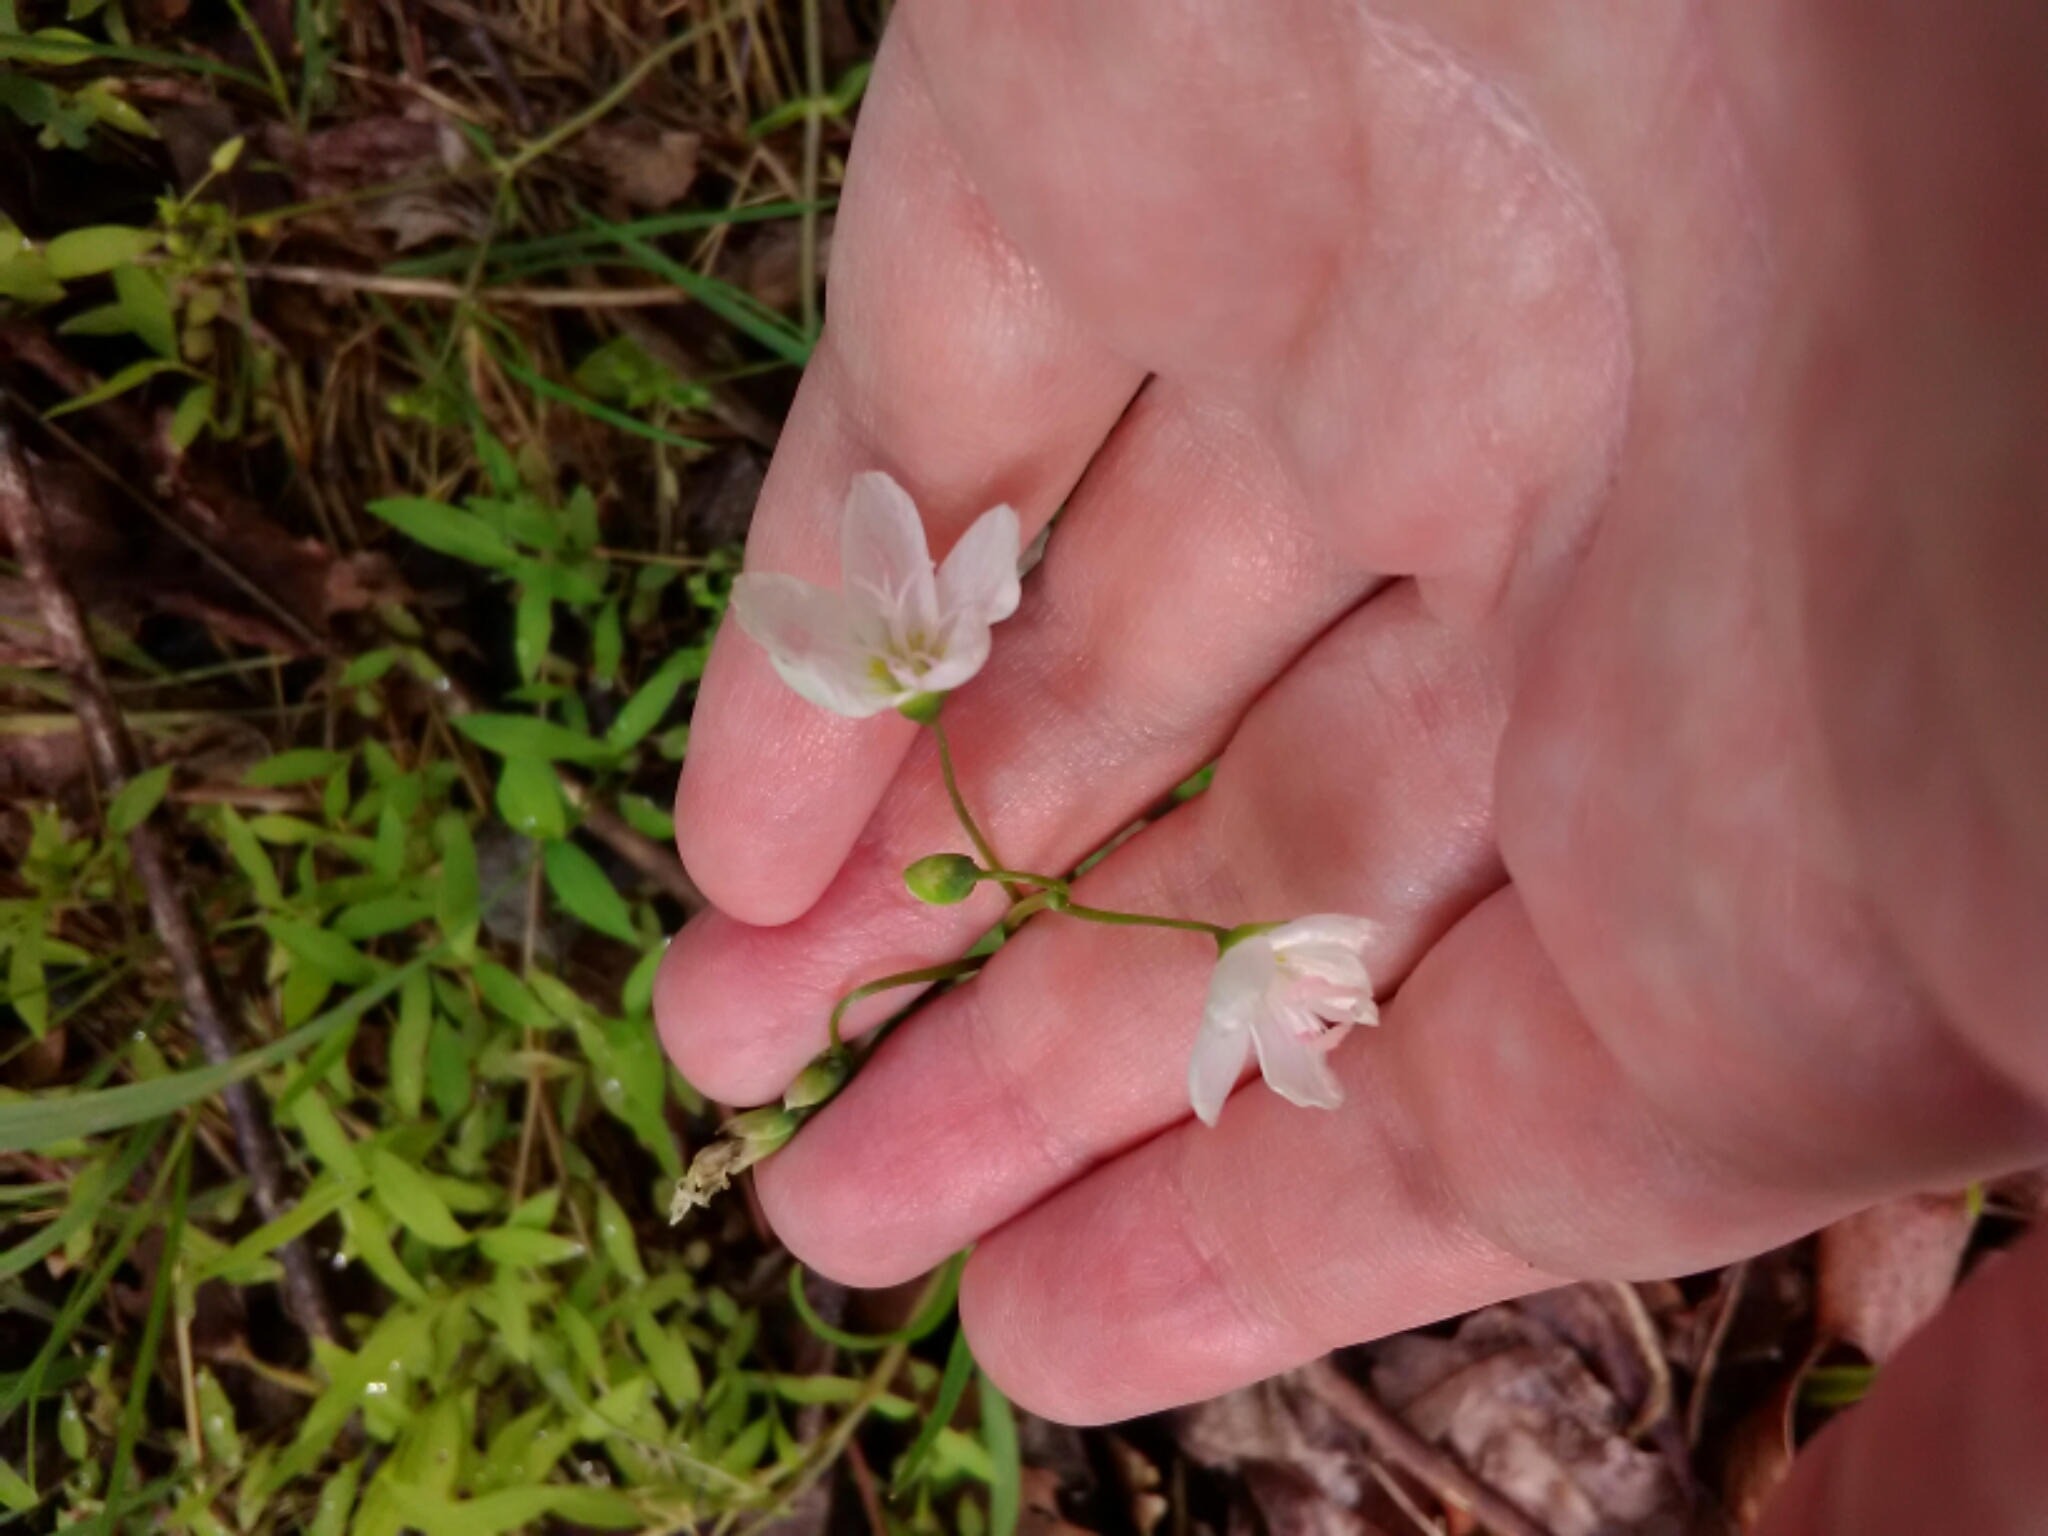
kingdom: Plantae
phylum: Tracheophyta
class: Magnoliopsida
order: Caryophyllales
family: Montiaceae
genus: Claytonia
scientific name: Claytonia virginica
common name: Virginia springbeauty
